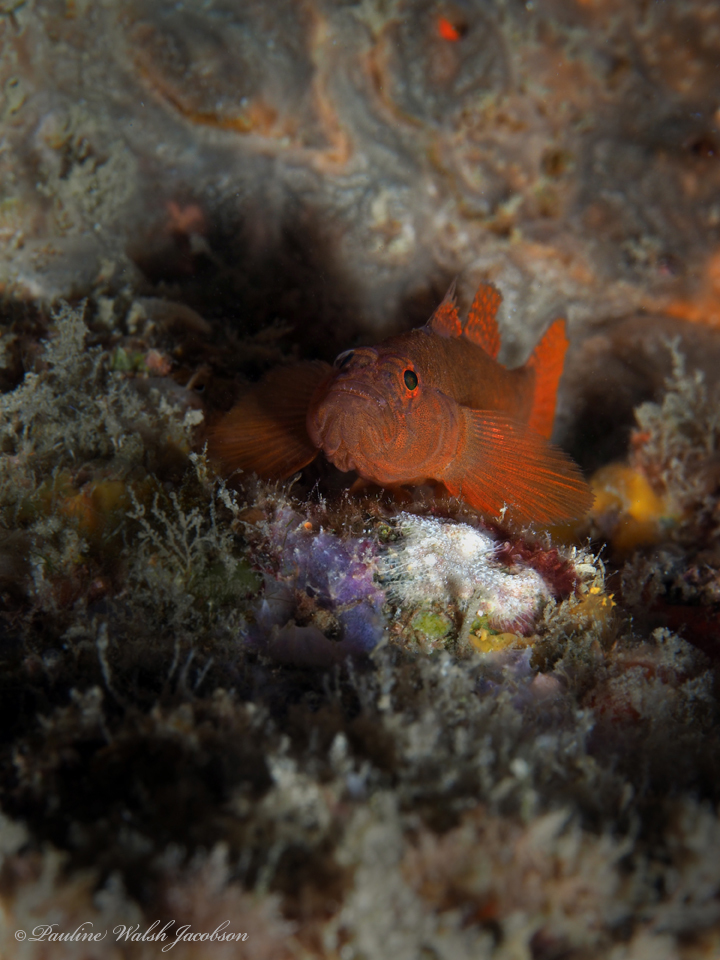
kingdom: Animalia
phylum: Chordata
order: Perciformes
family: Gobiidae
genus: Priolepis
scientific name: Priolepis hipoliti
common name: Rusty goby
